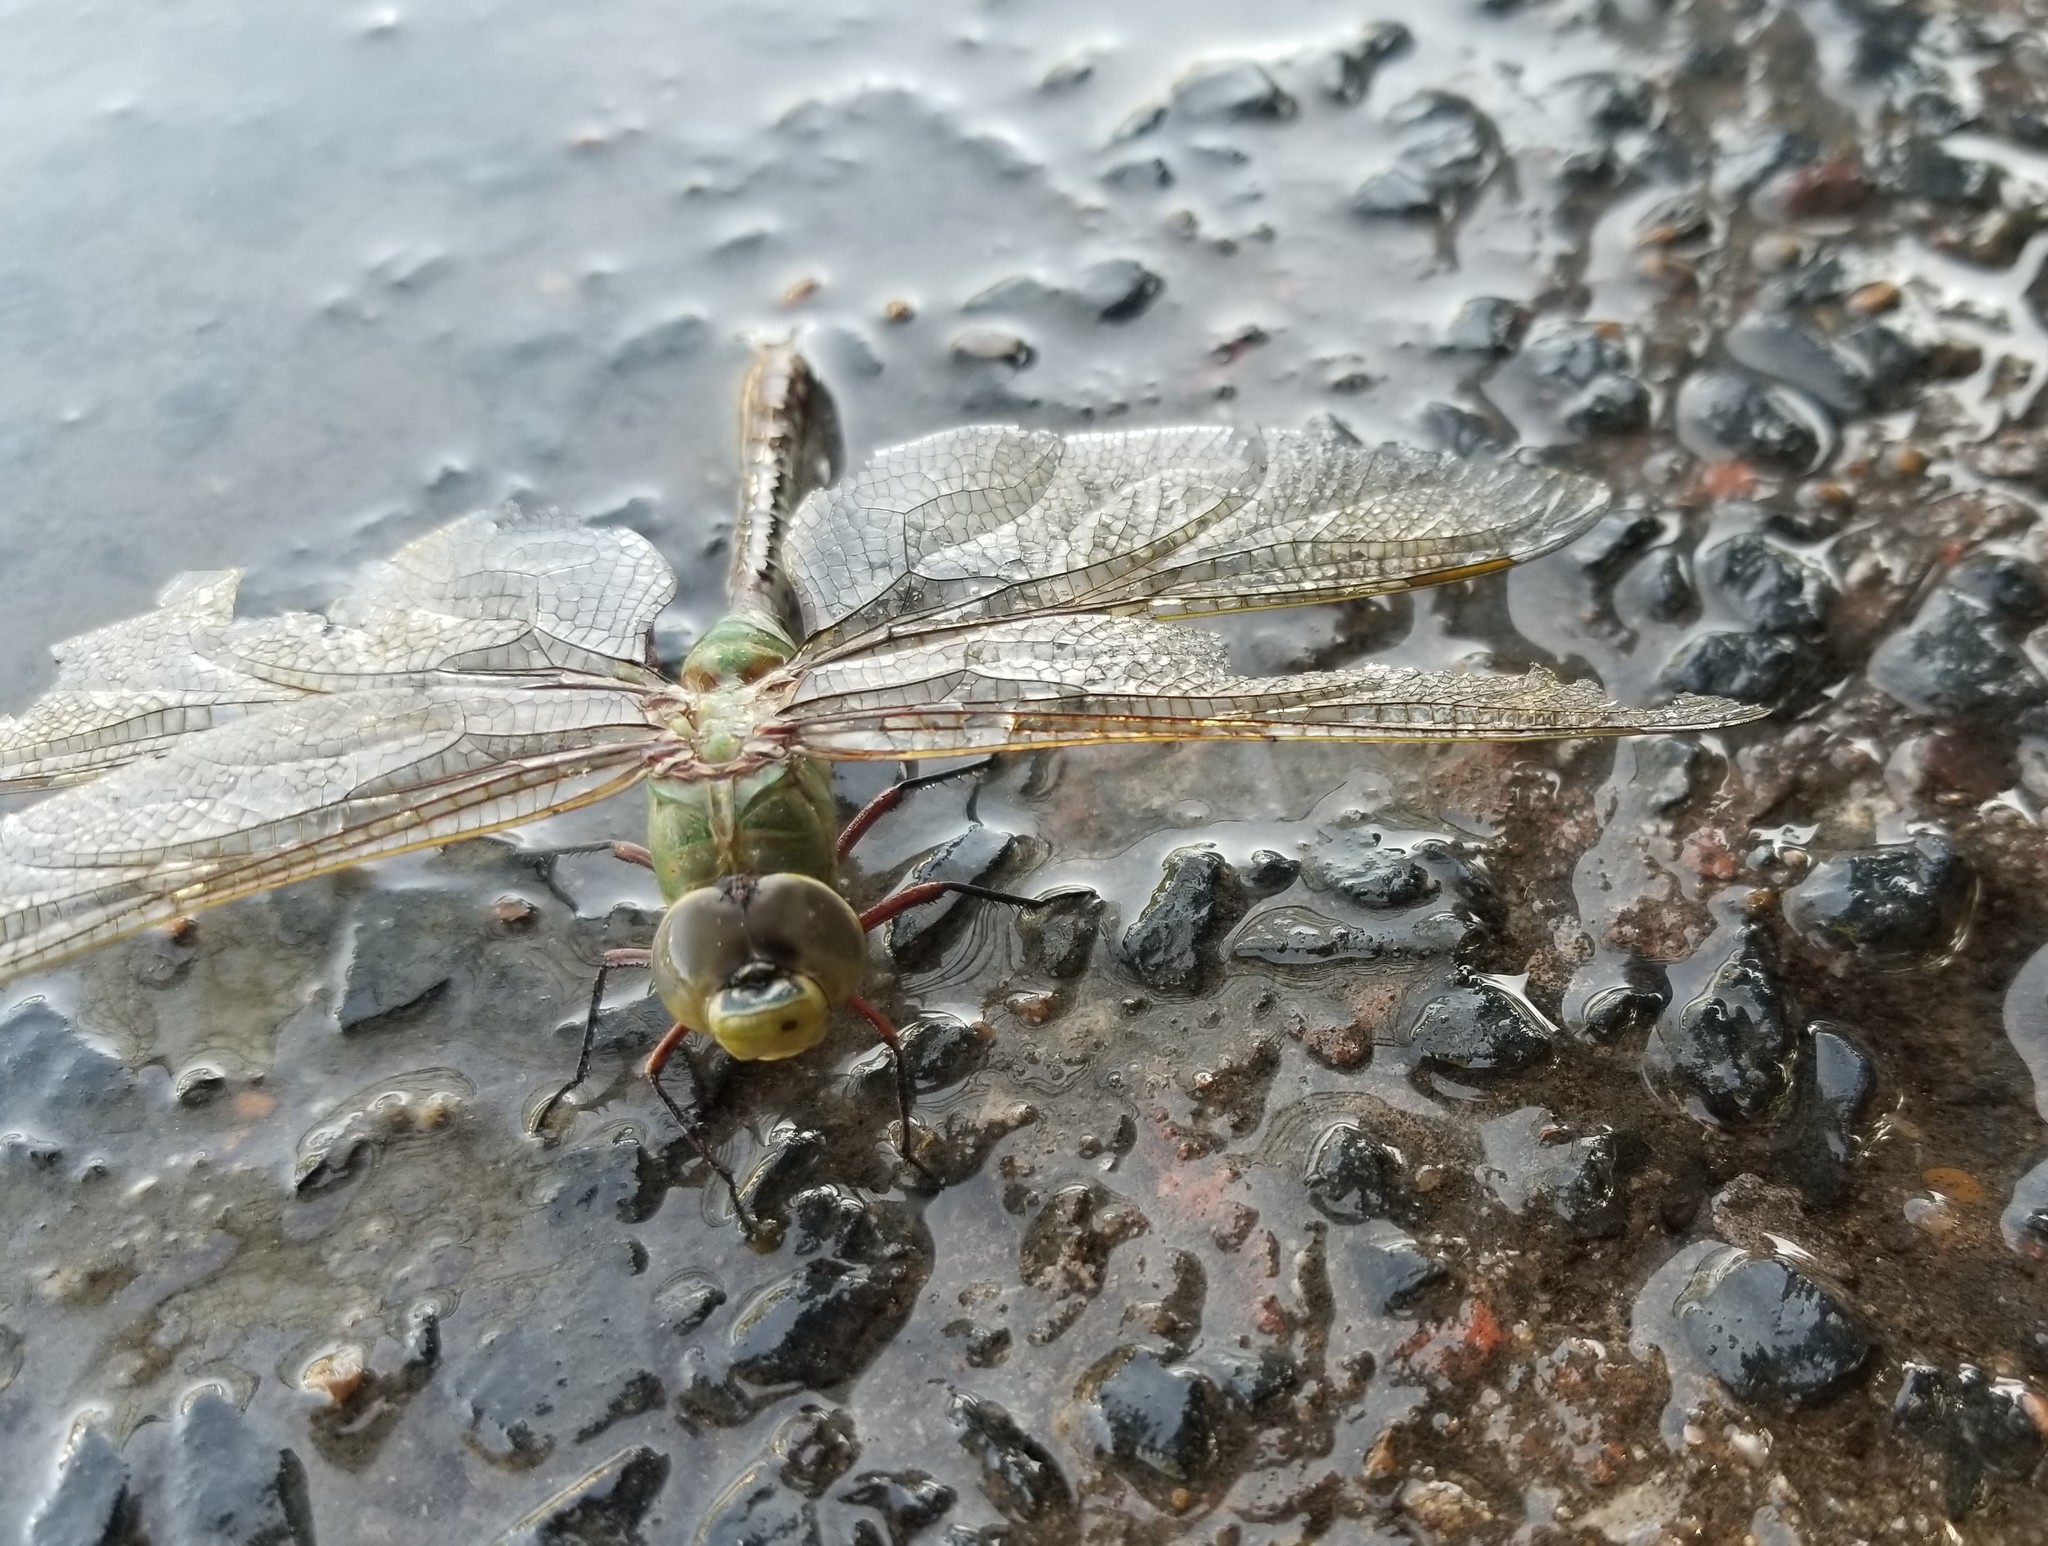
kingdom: Animalia
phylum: Arthropoda
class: Insecta
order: Odonata
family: Aeshnidae
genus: Anax
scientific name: Anax junius
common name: Common green darner
